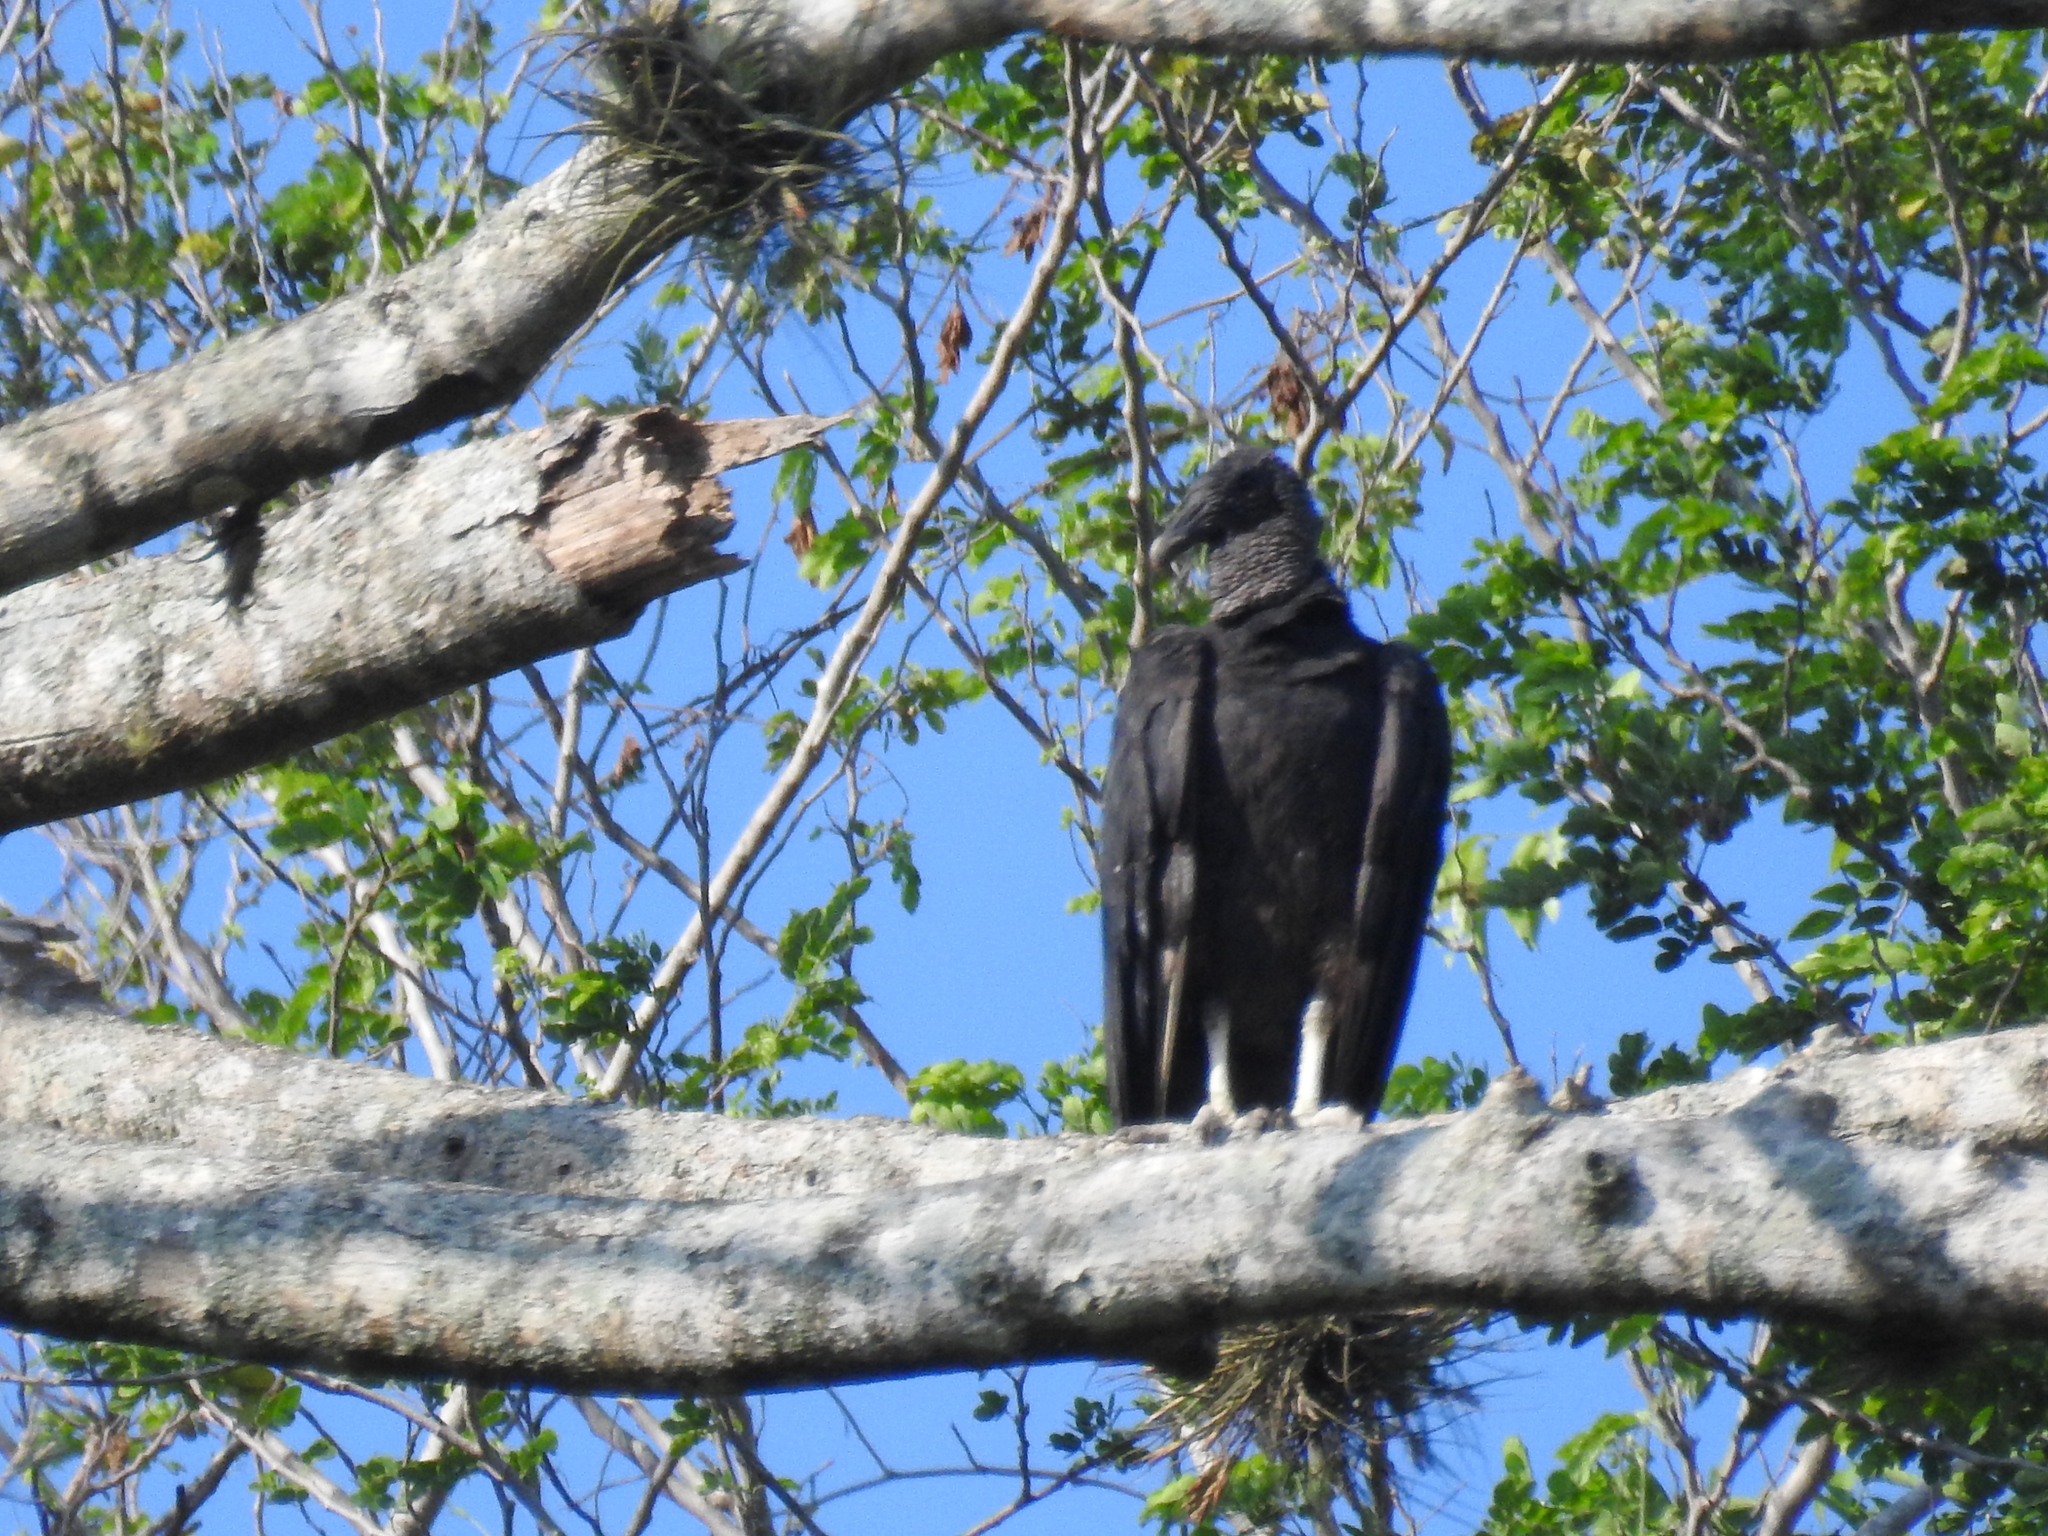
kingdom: Animalia
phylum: Chordata
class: Aves
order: Accipitriformes
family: Cathartidae
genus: Coragyps
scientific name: Coragyps atratus
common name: Black vulture
